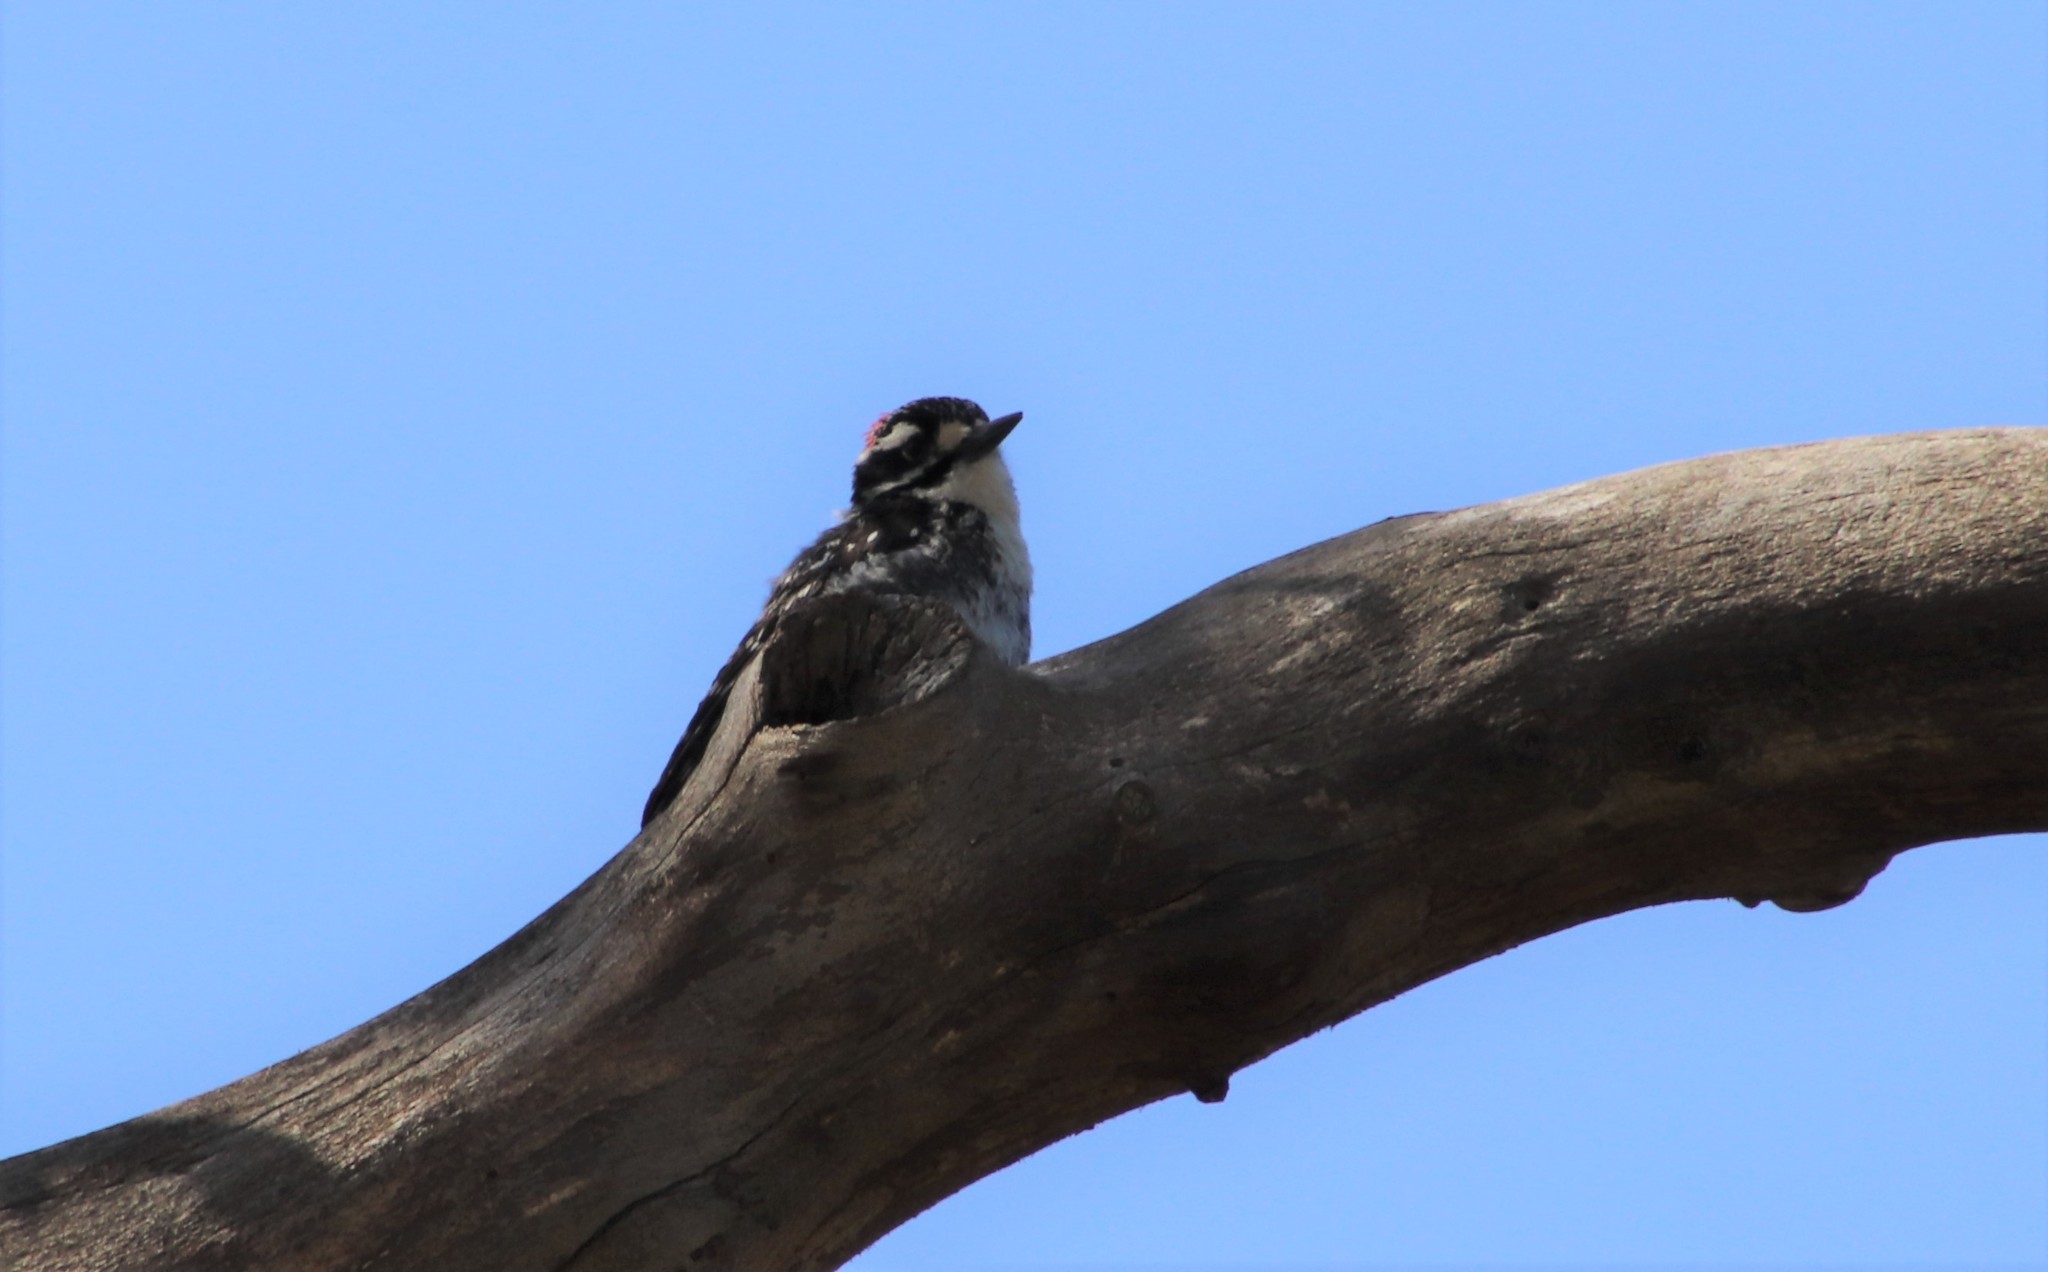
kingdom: Animalia
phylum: Chordata
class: Aves
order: Piciformes
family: Picidae
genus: Dryobates
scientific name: Dryobates nuttallii
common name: Nuttall's woodpecker
